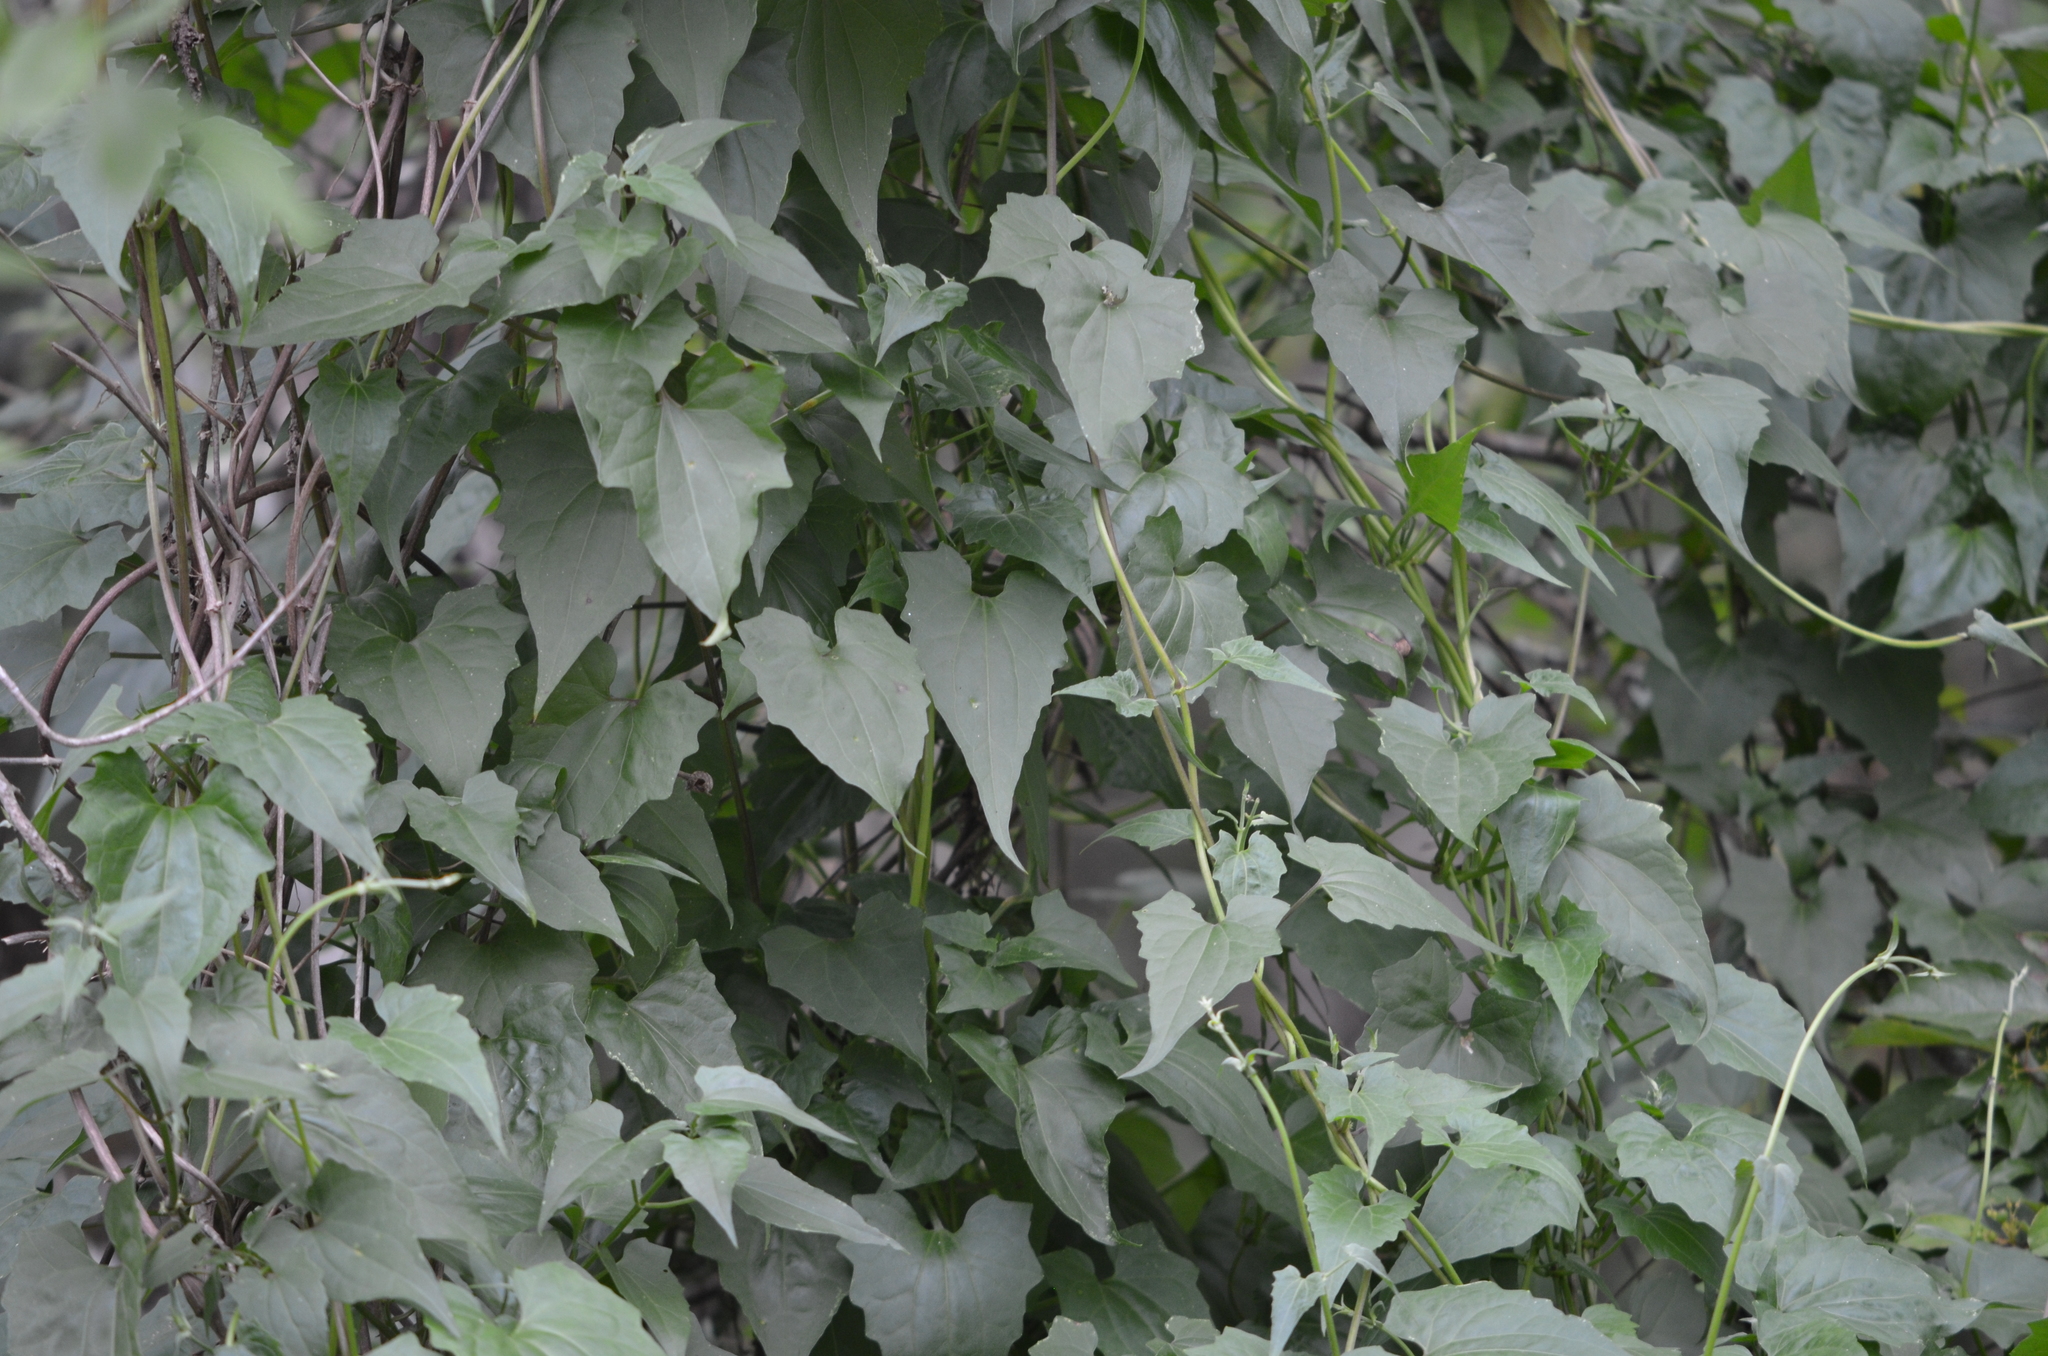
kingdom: Plantae
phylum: Tracheophyta
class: Magnoliopsida
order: Asterales
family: Asteraceae
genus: Mikania
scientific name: Mikania scandens
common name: Climbing hempvine
